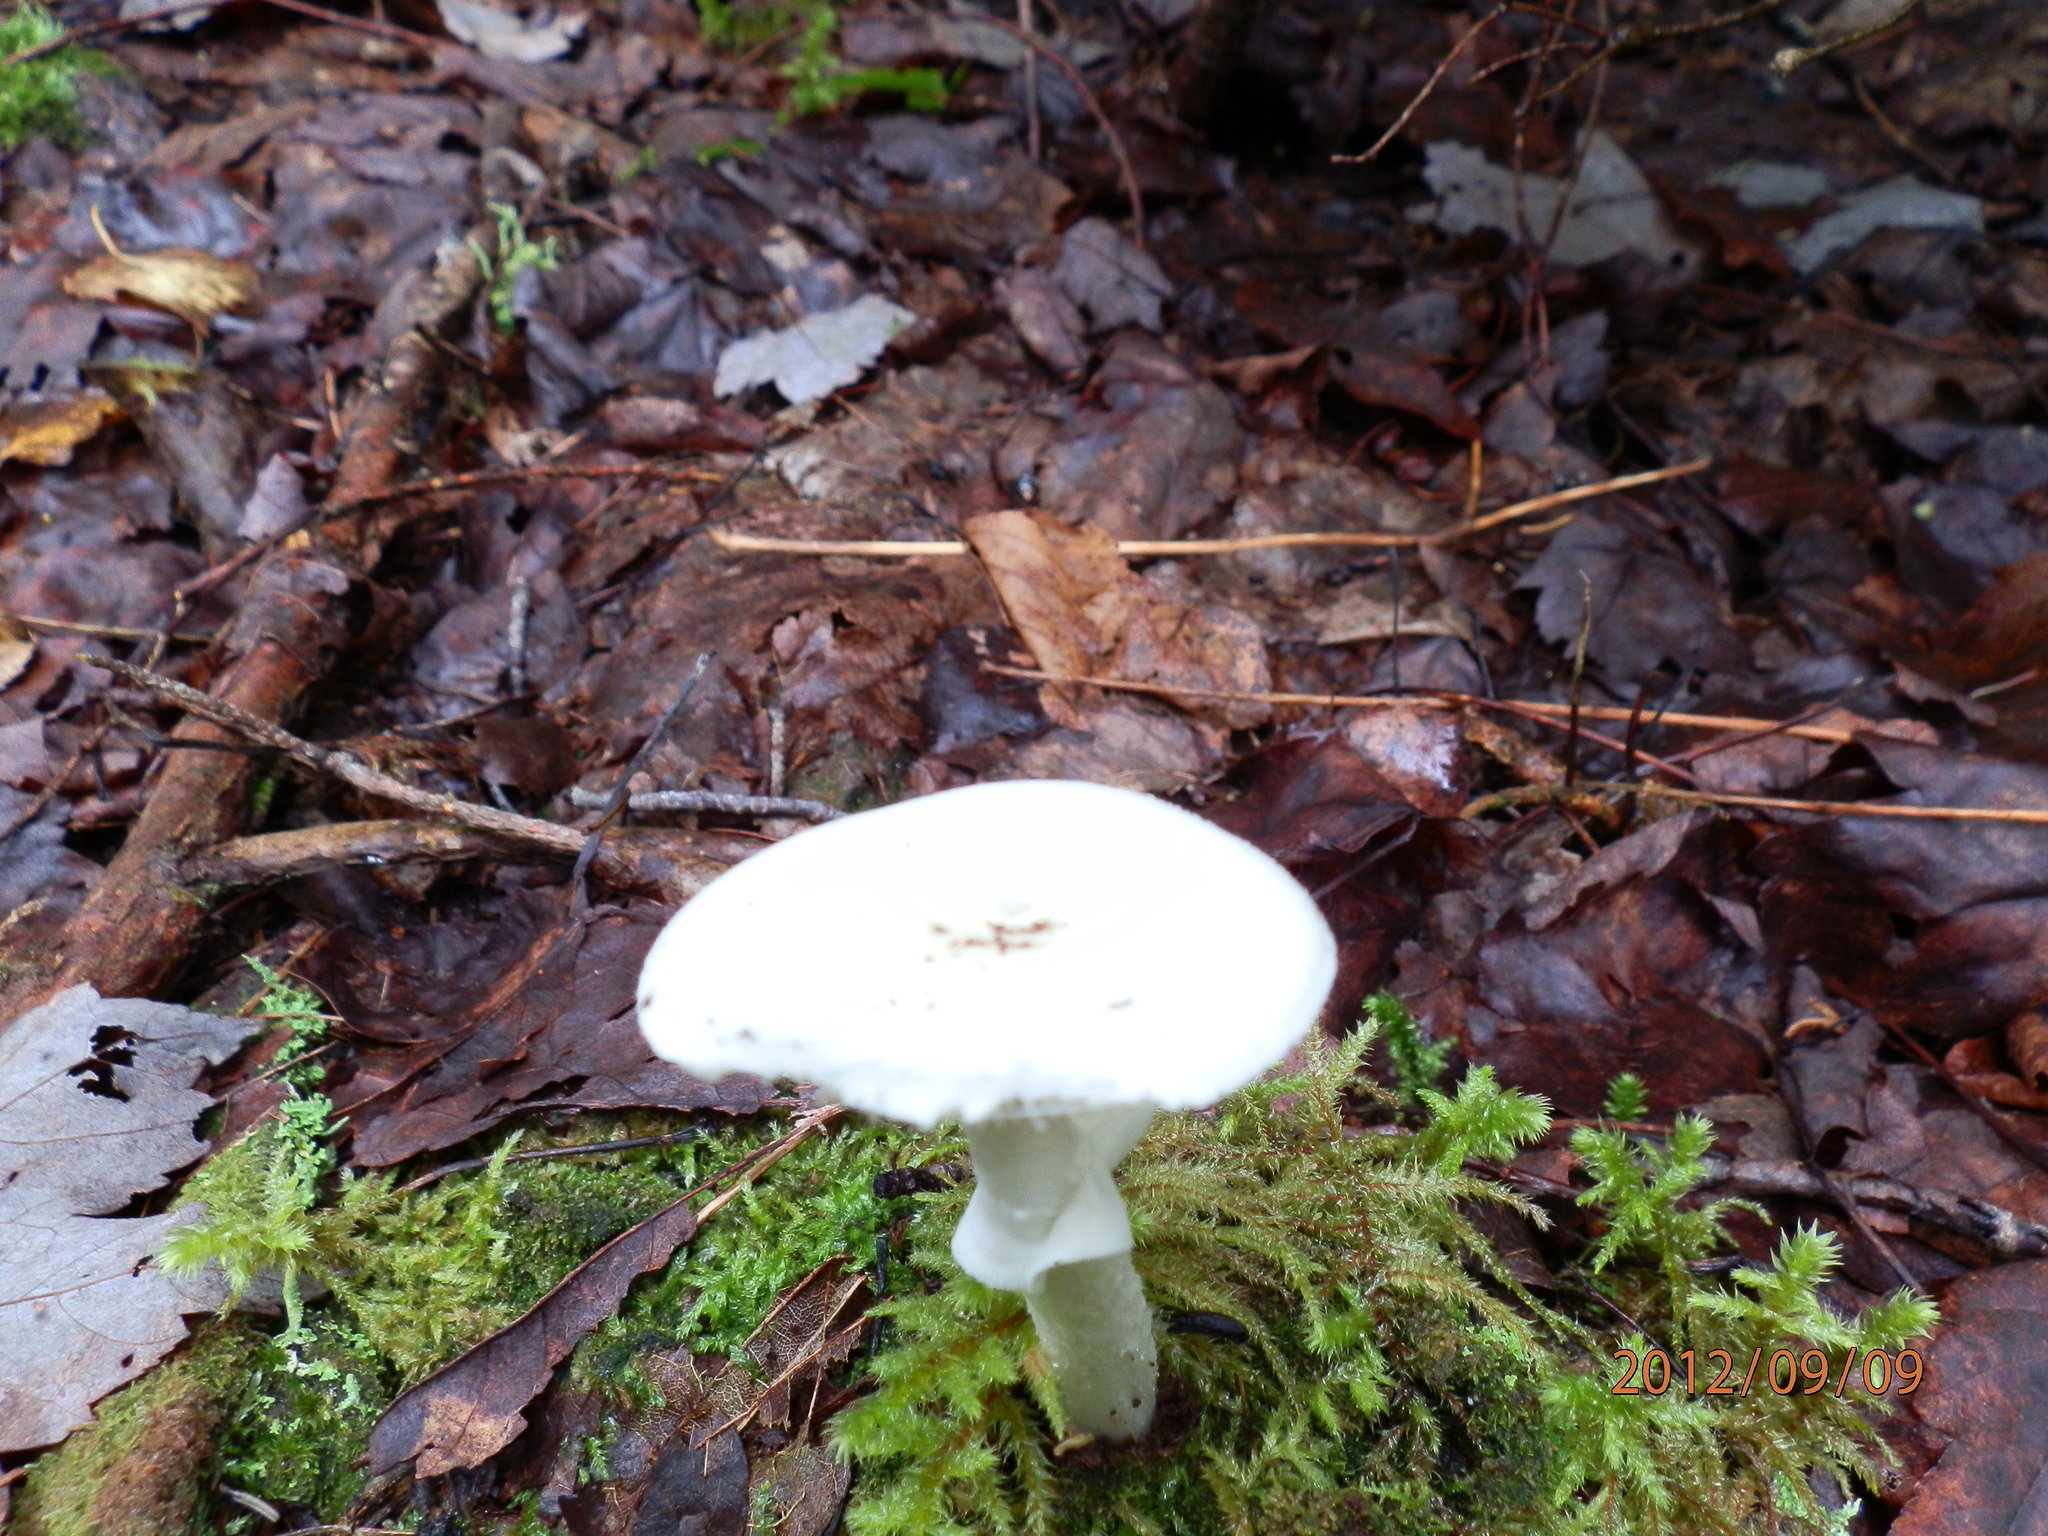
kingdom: Fungi
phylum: Basidiomycota
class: Agaricomycetes
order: Agaricales
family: Amanitaceae
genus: Amanita
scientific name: Amanita bisporigera
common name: Eastern north american destroying angel
